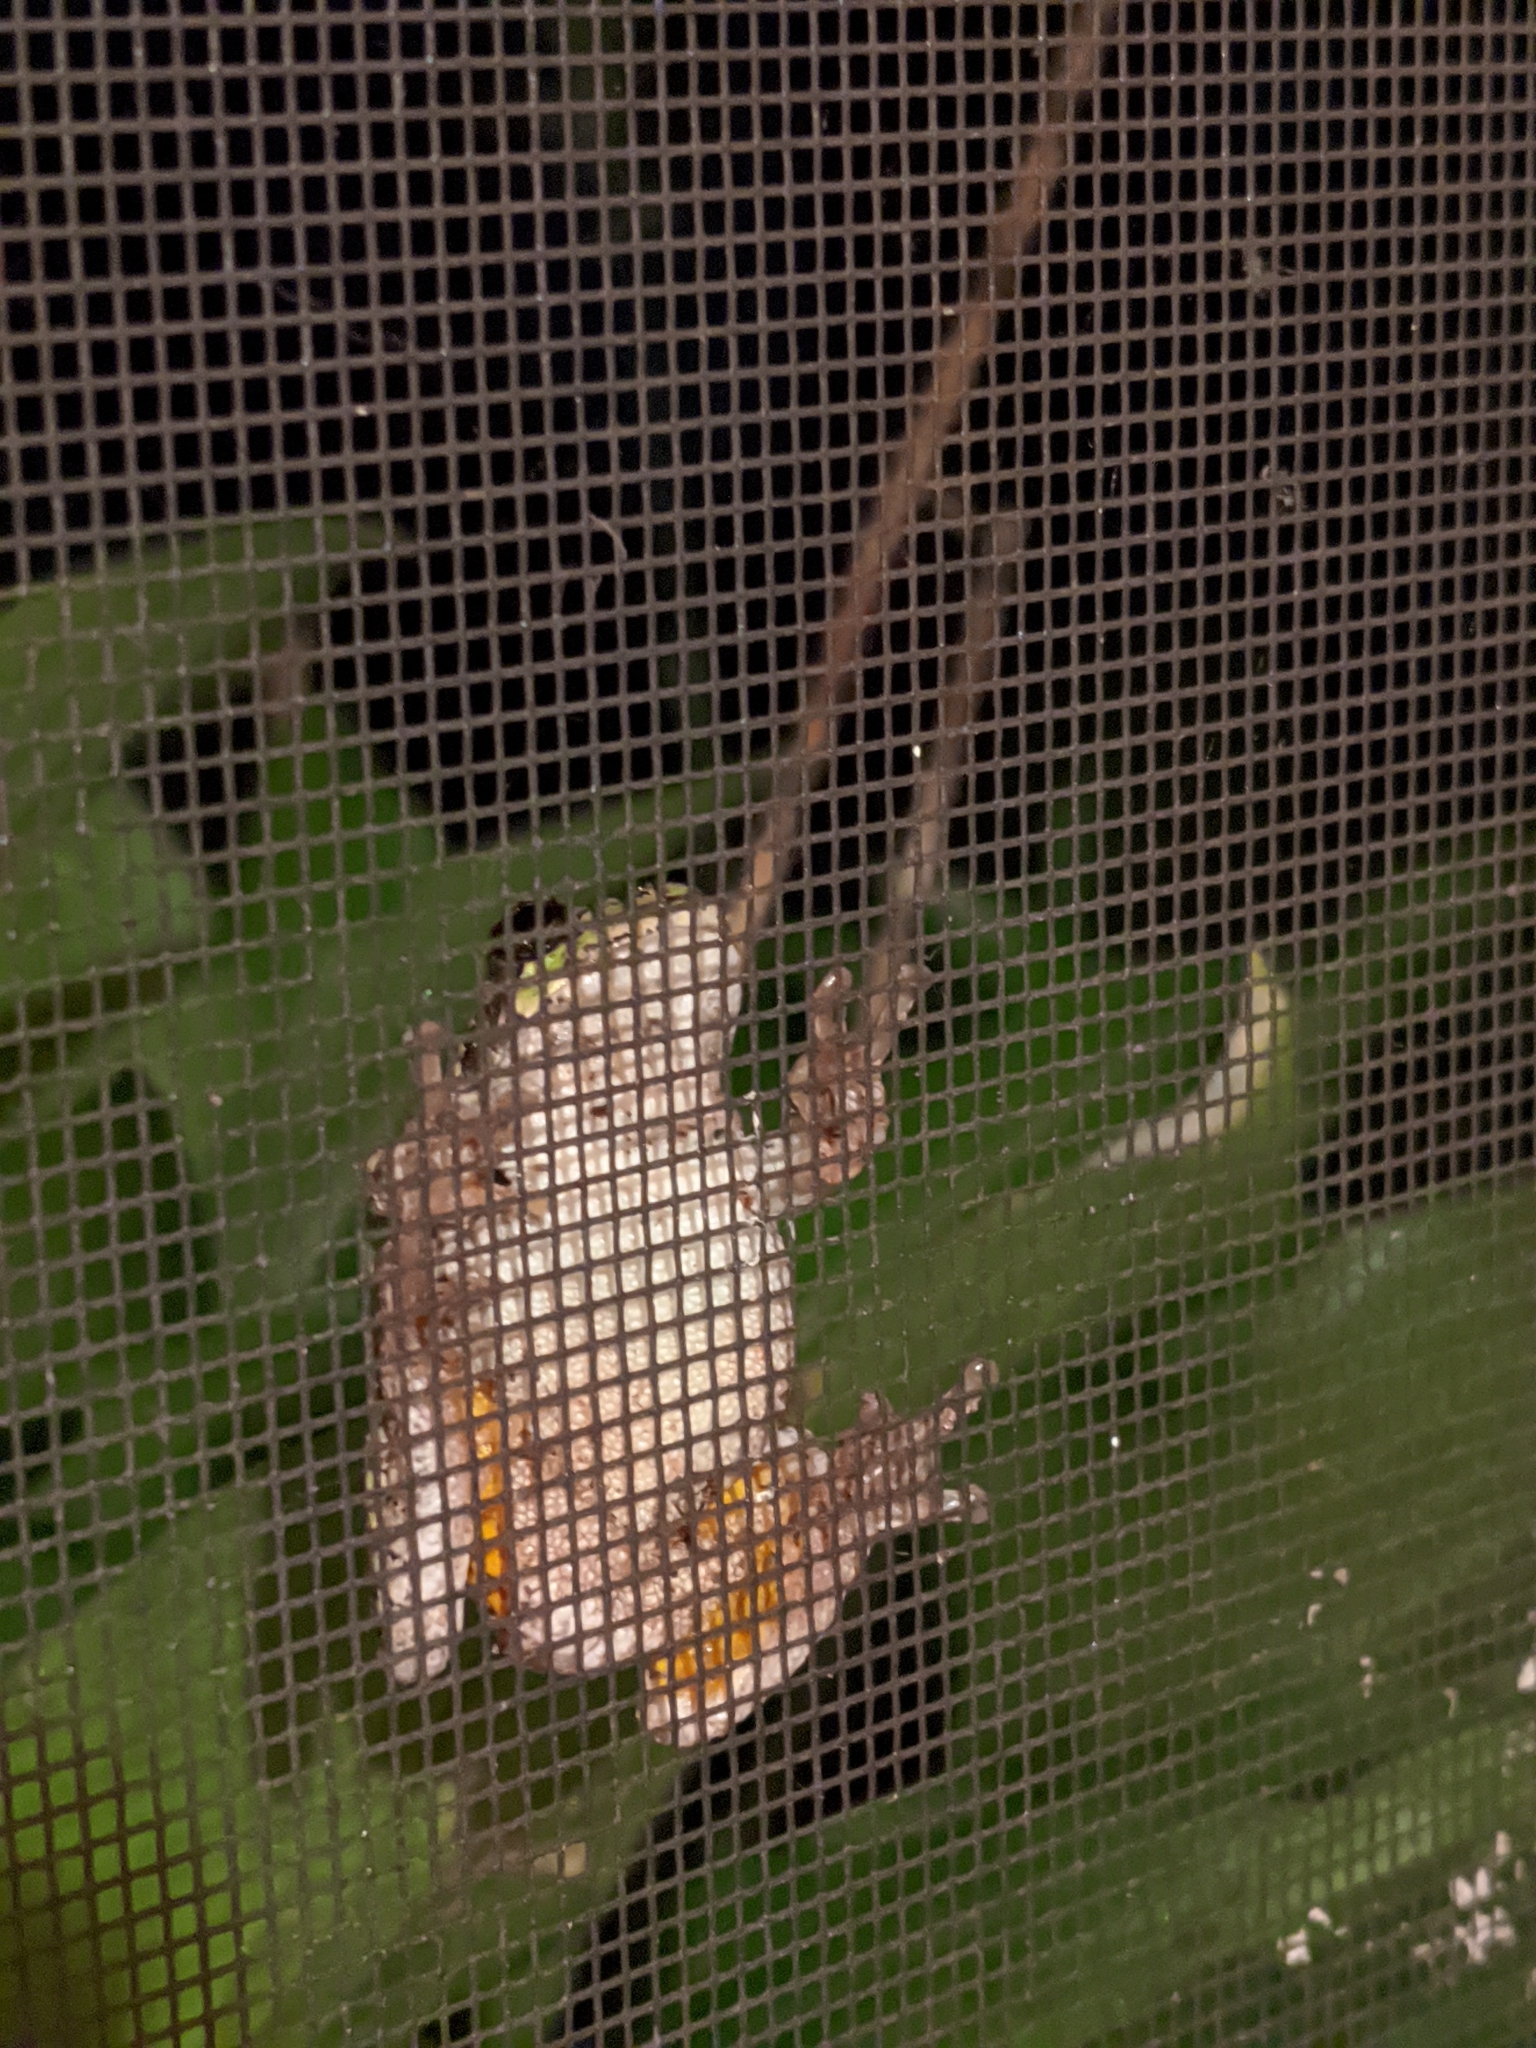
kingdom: Animalia
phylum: Chordata
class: Amphibia
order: Anura
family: Hylidae
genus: Hyla
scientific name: Hyla
